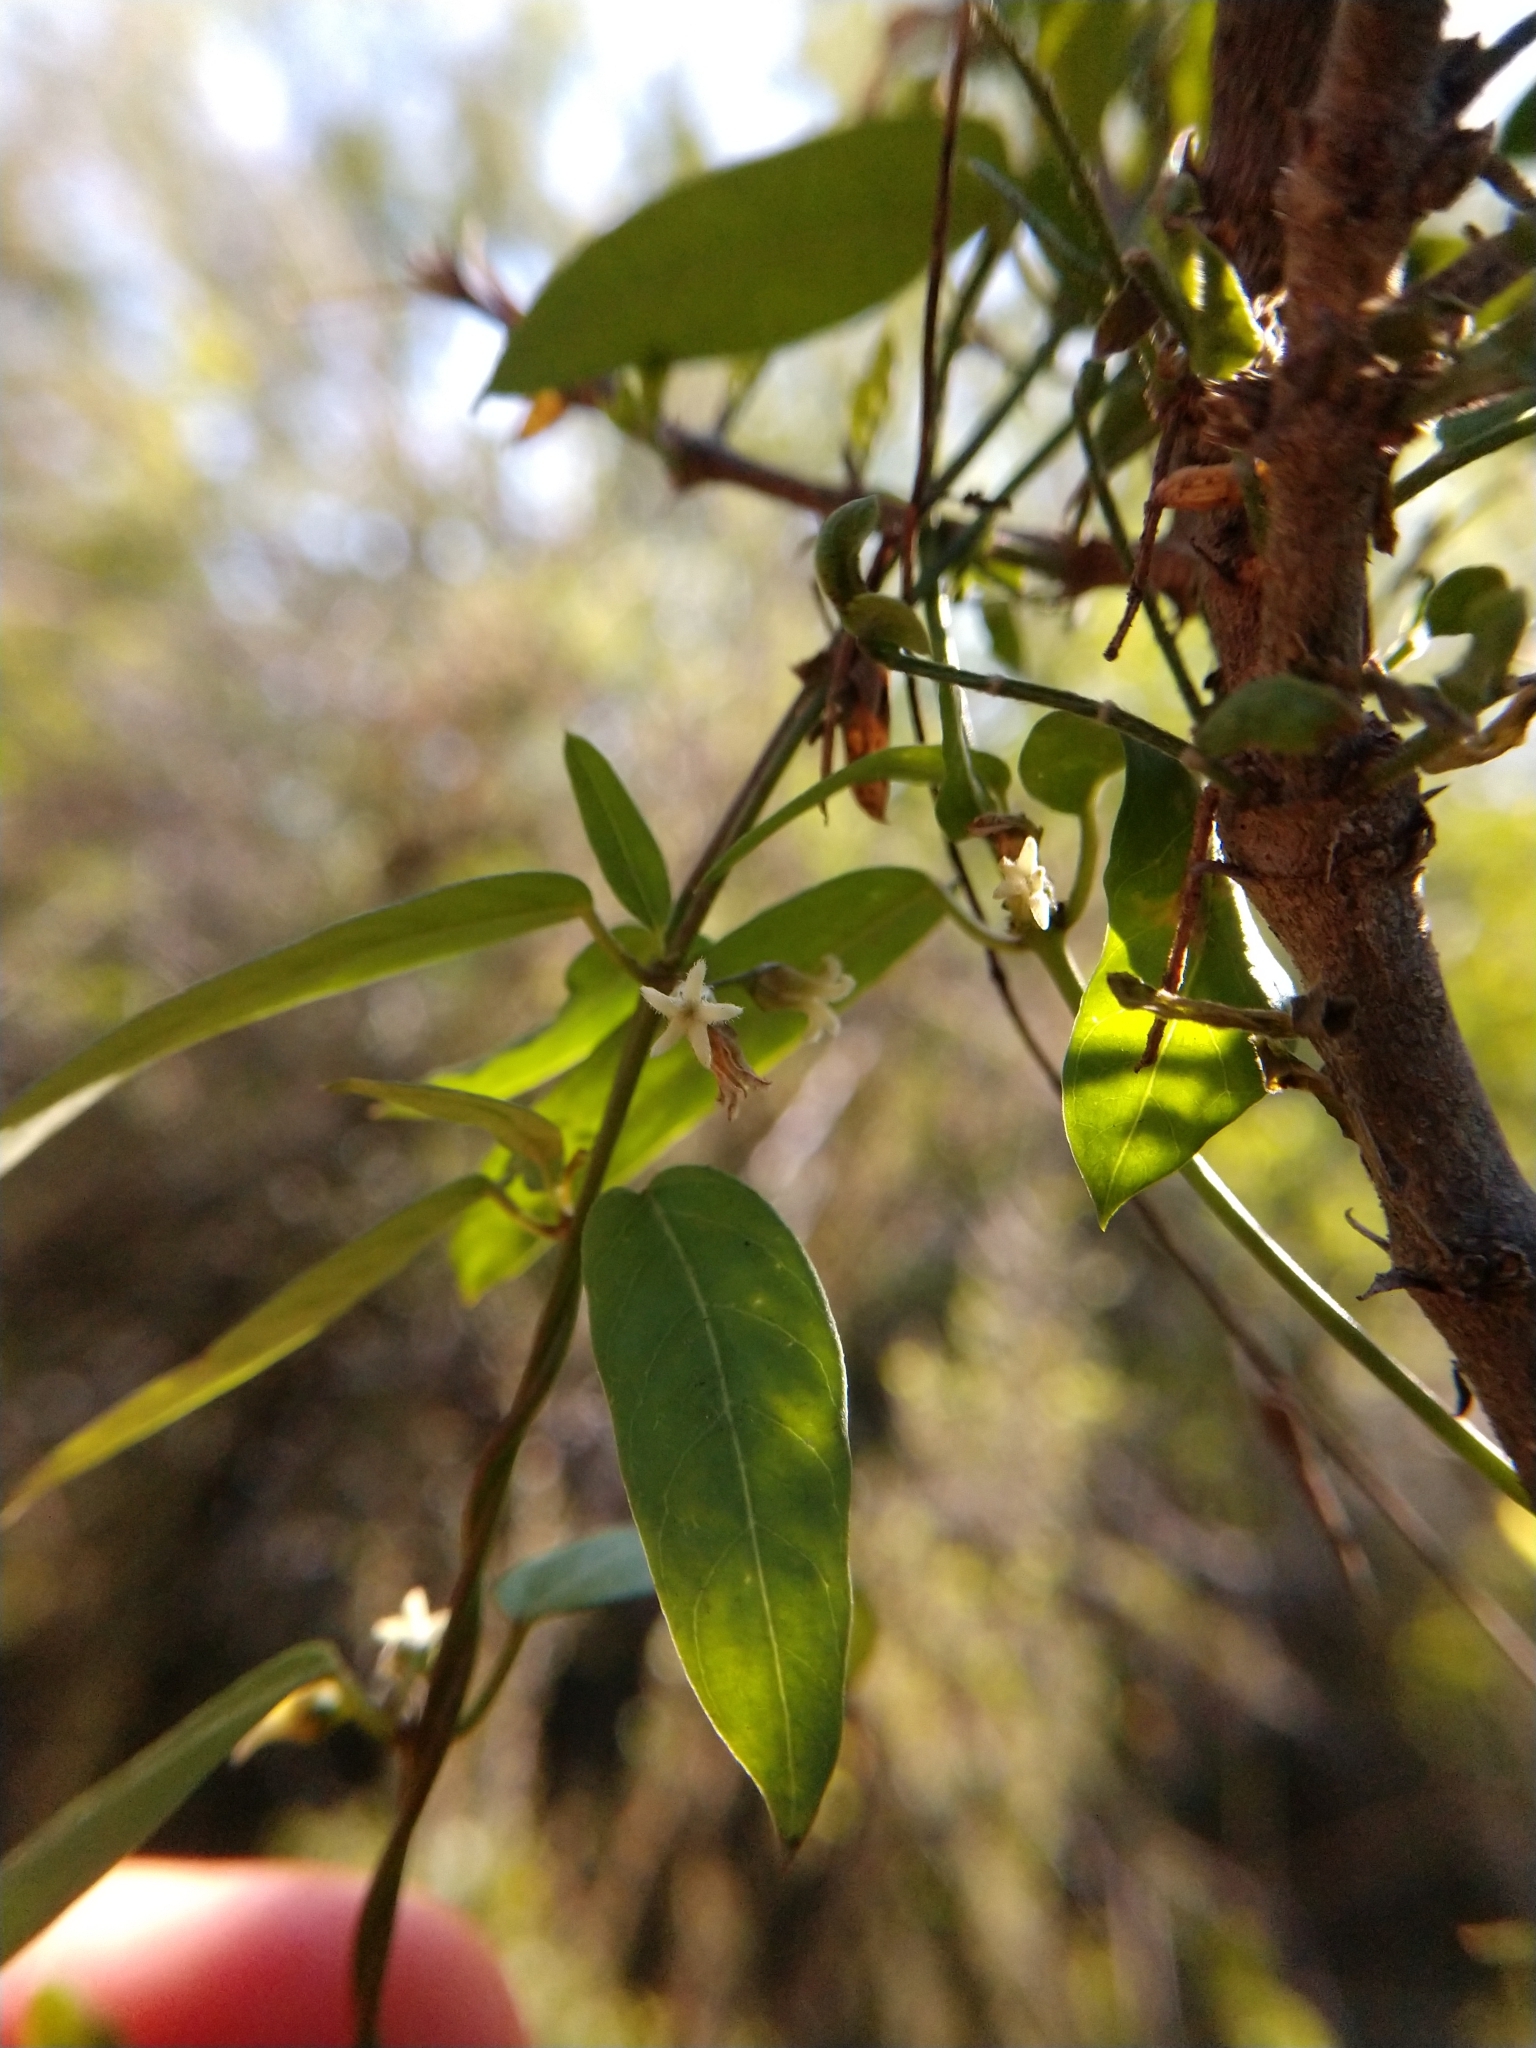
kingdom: Plantae
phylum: Tracheophyta
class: Magnoliopsida
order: Gentianales
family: Apocynaceae
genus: Metastelma
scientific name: Metastelma barbigerum
